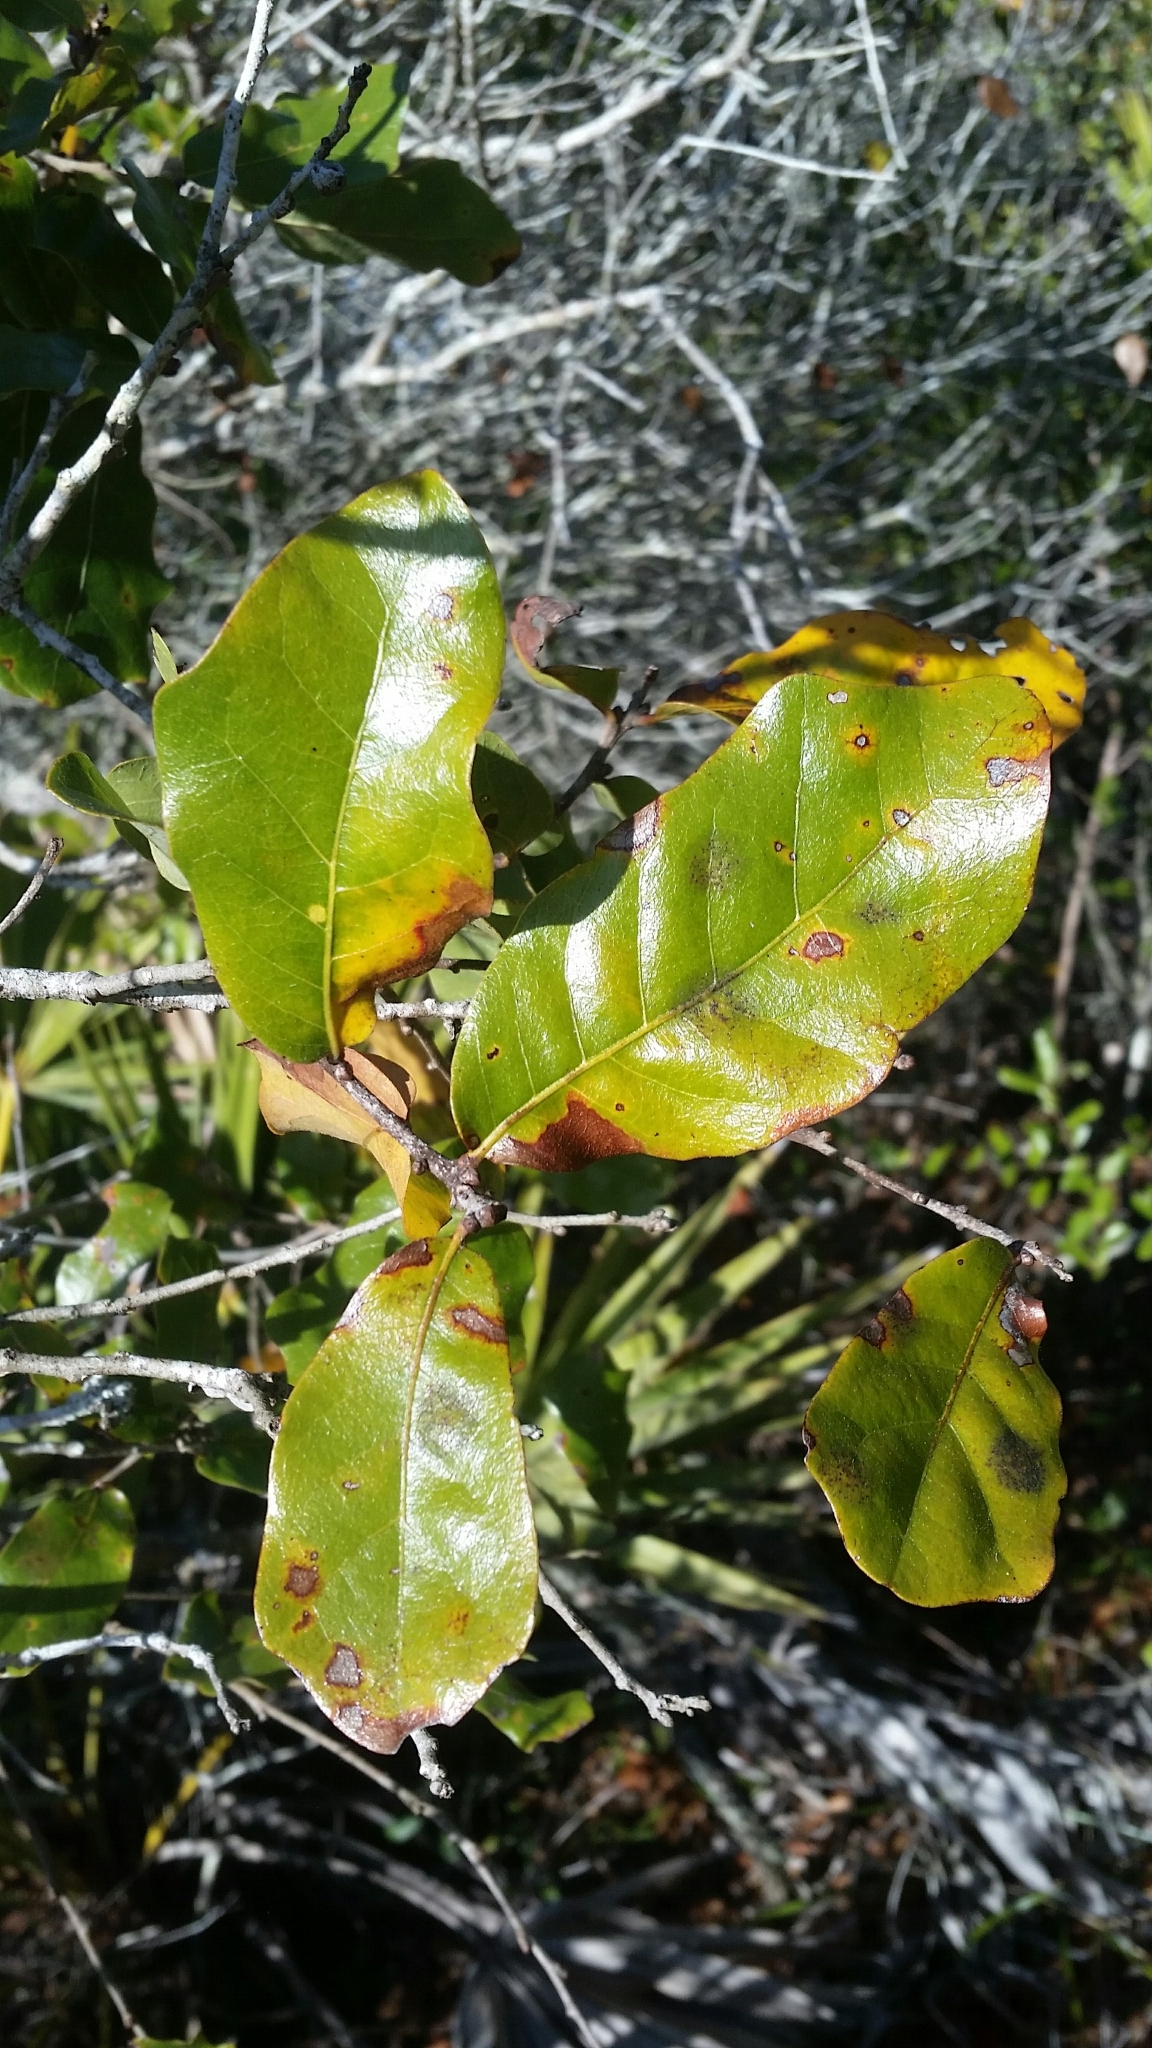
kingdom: Plantae
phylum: Tracheophyta
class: Magnoliopsida
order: Fagales
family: Fagaceae
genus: Quercus
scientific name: Quercus chapmanii
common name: Chapman oak
